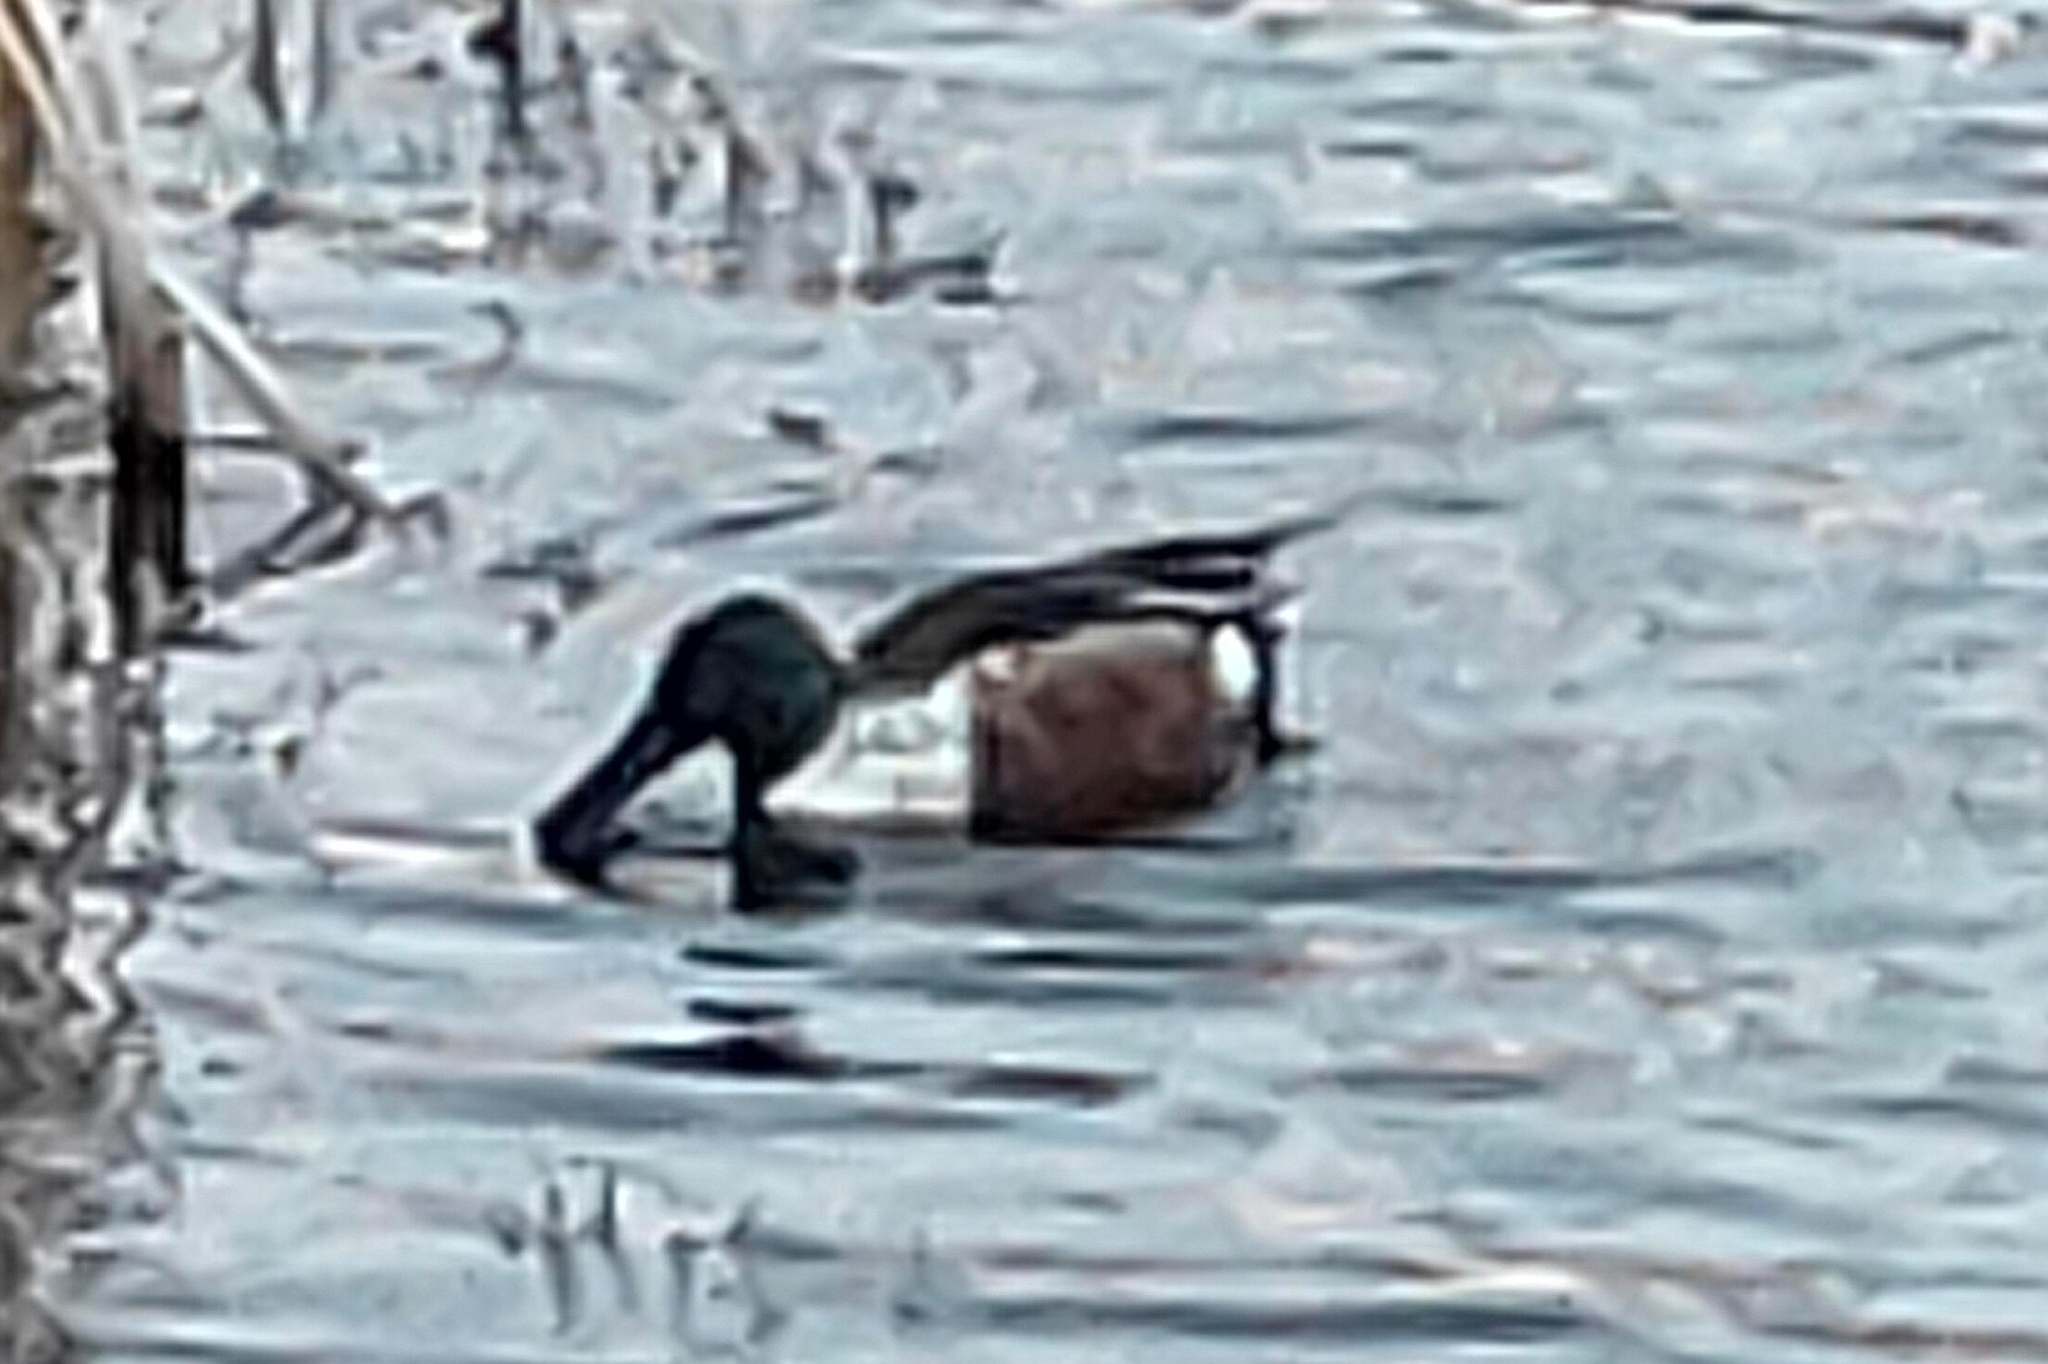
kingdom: Animalia
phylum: Chordata
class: Aves
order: Anseriformes
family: Anatidae
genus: Spatula
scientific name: Spatula clypeata
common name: Northern shoveler
